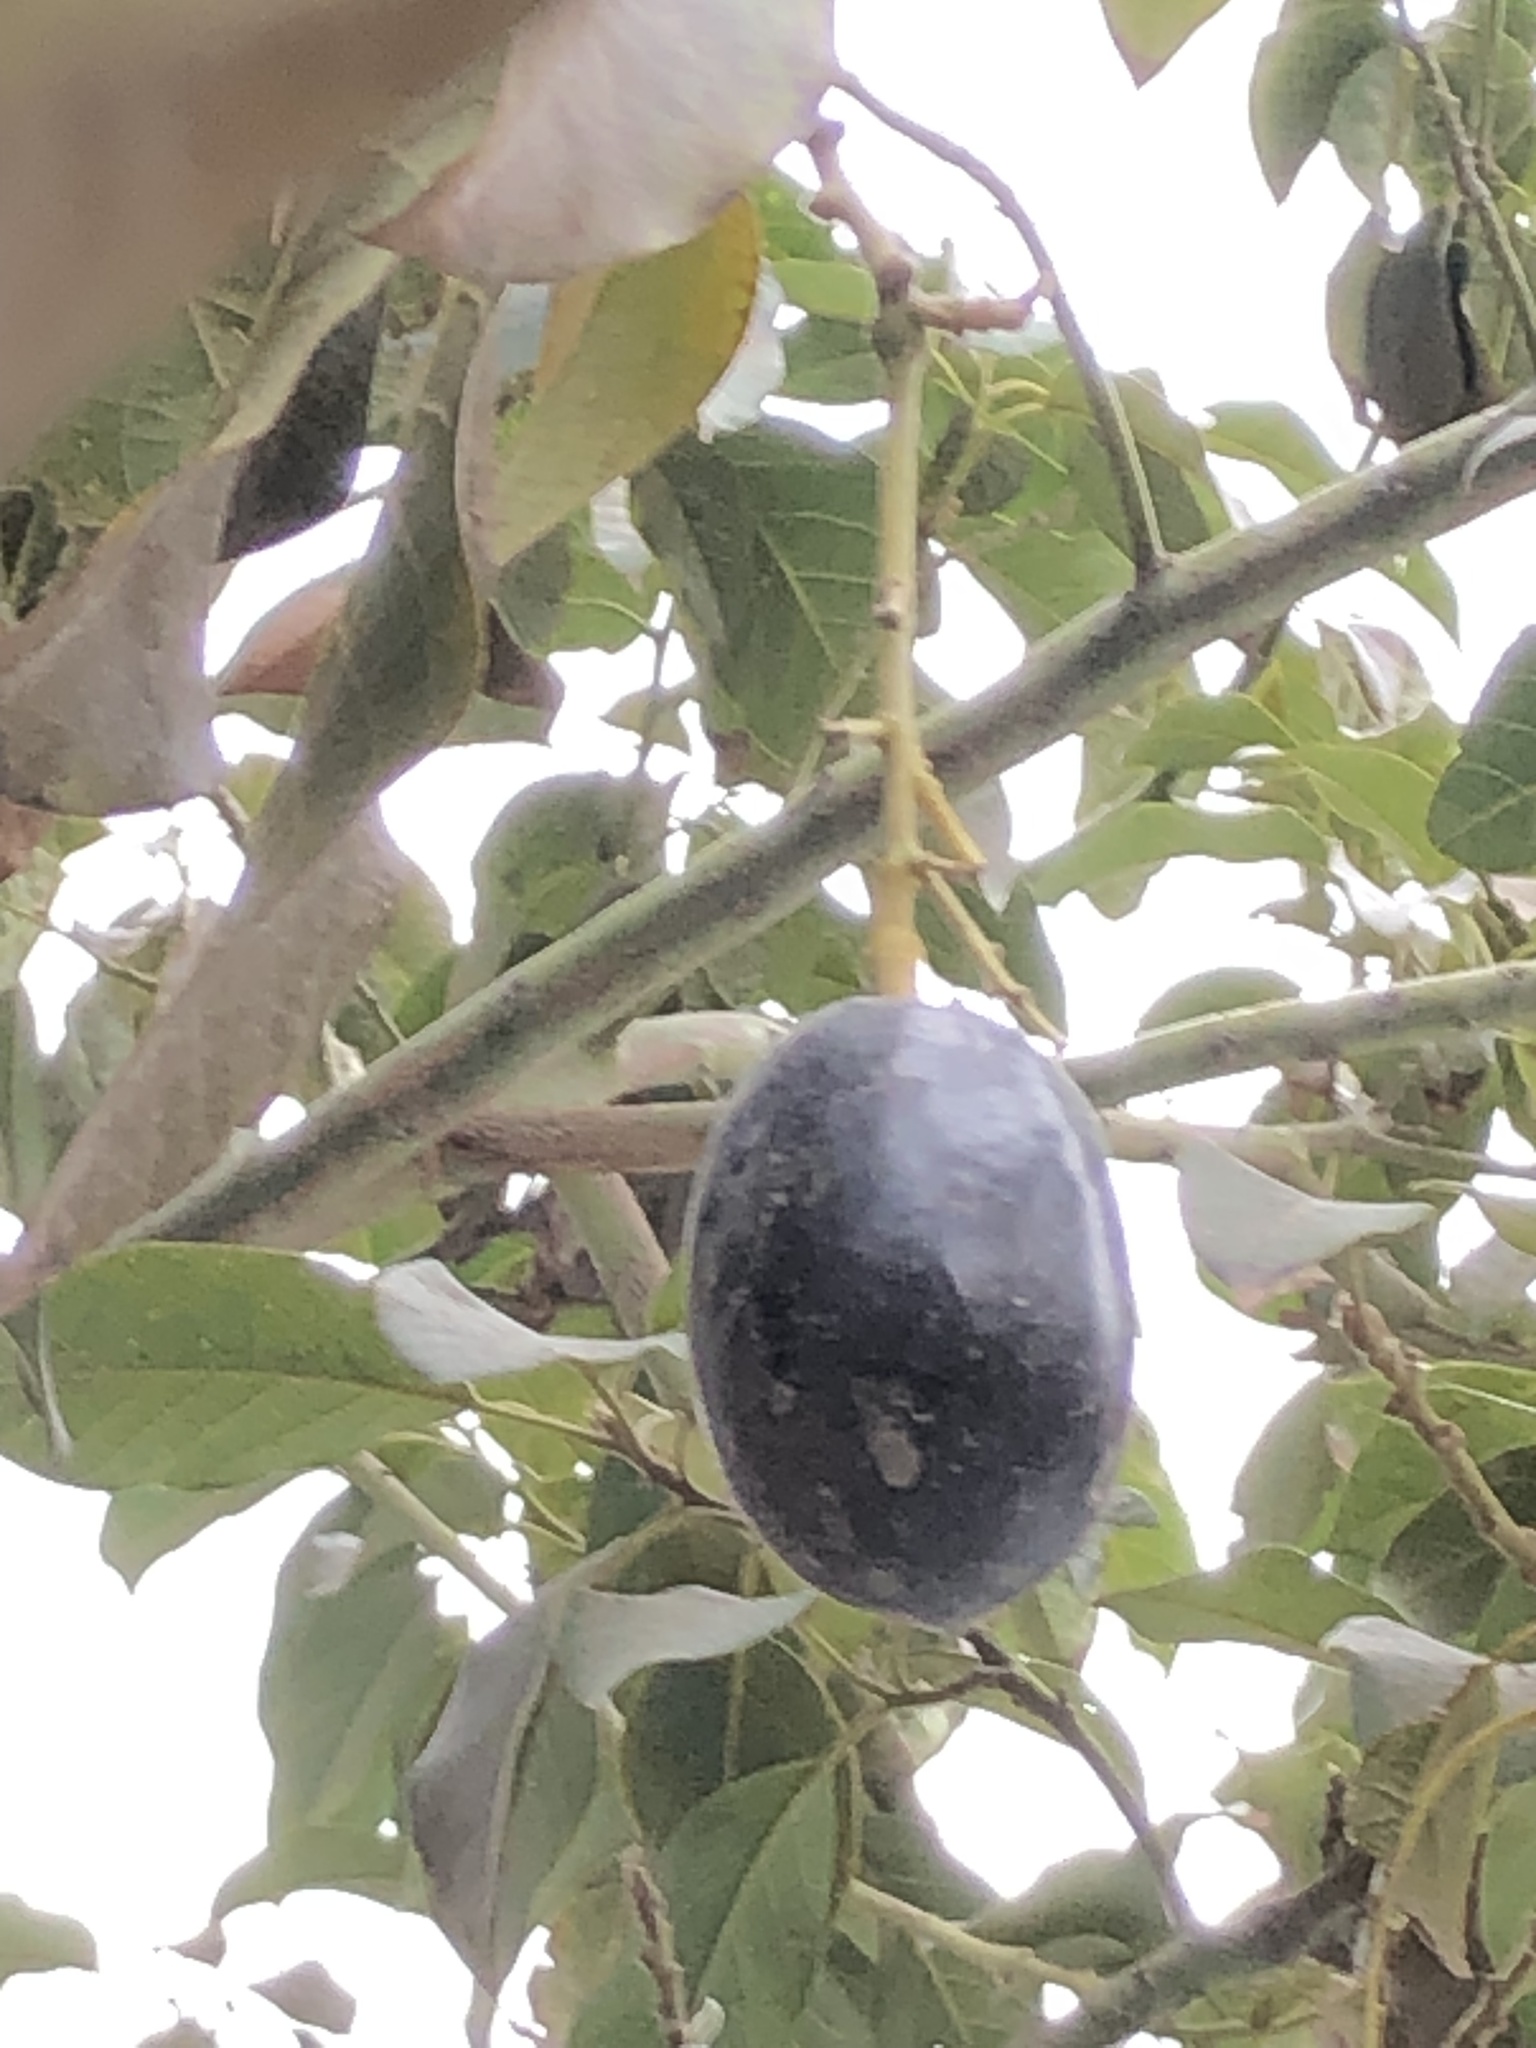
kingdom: Plantae
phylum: Tracheophyta
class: Magnoliopsida
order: Laurales
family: Lauraceae
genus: Persea
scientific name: Persea americana
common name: Avocado
